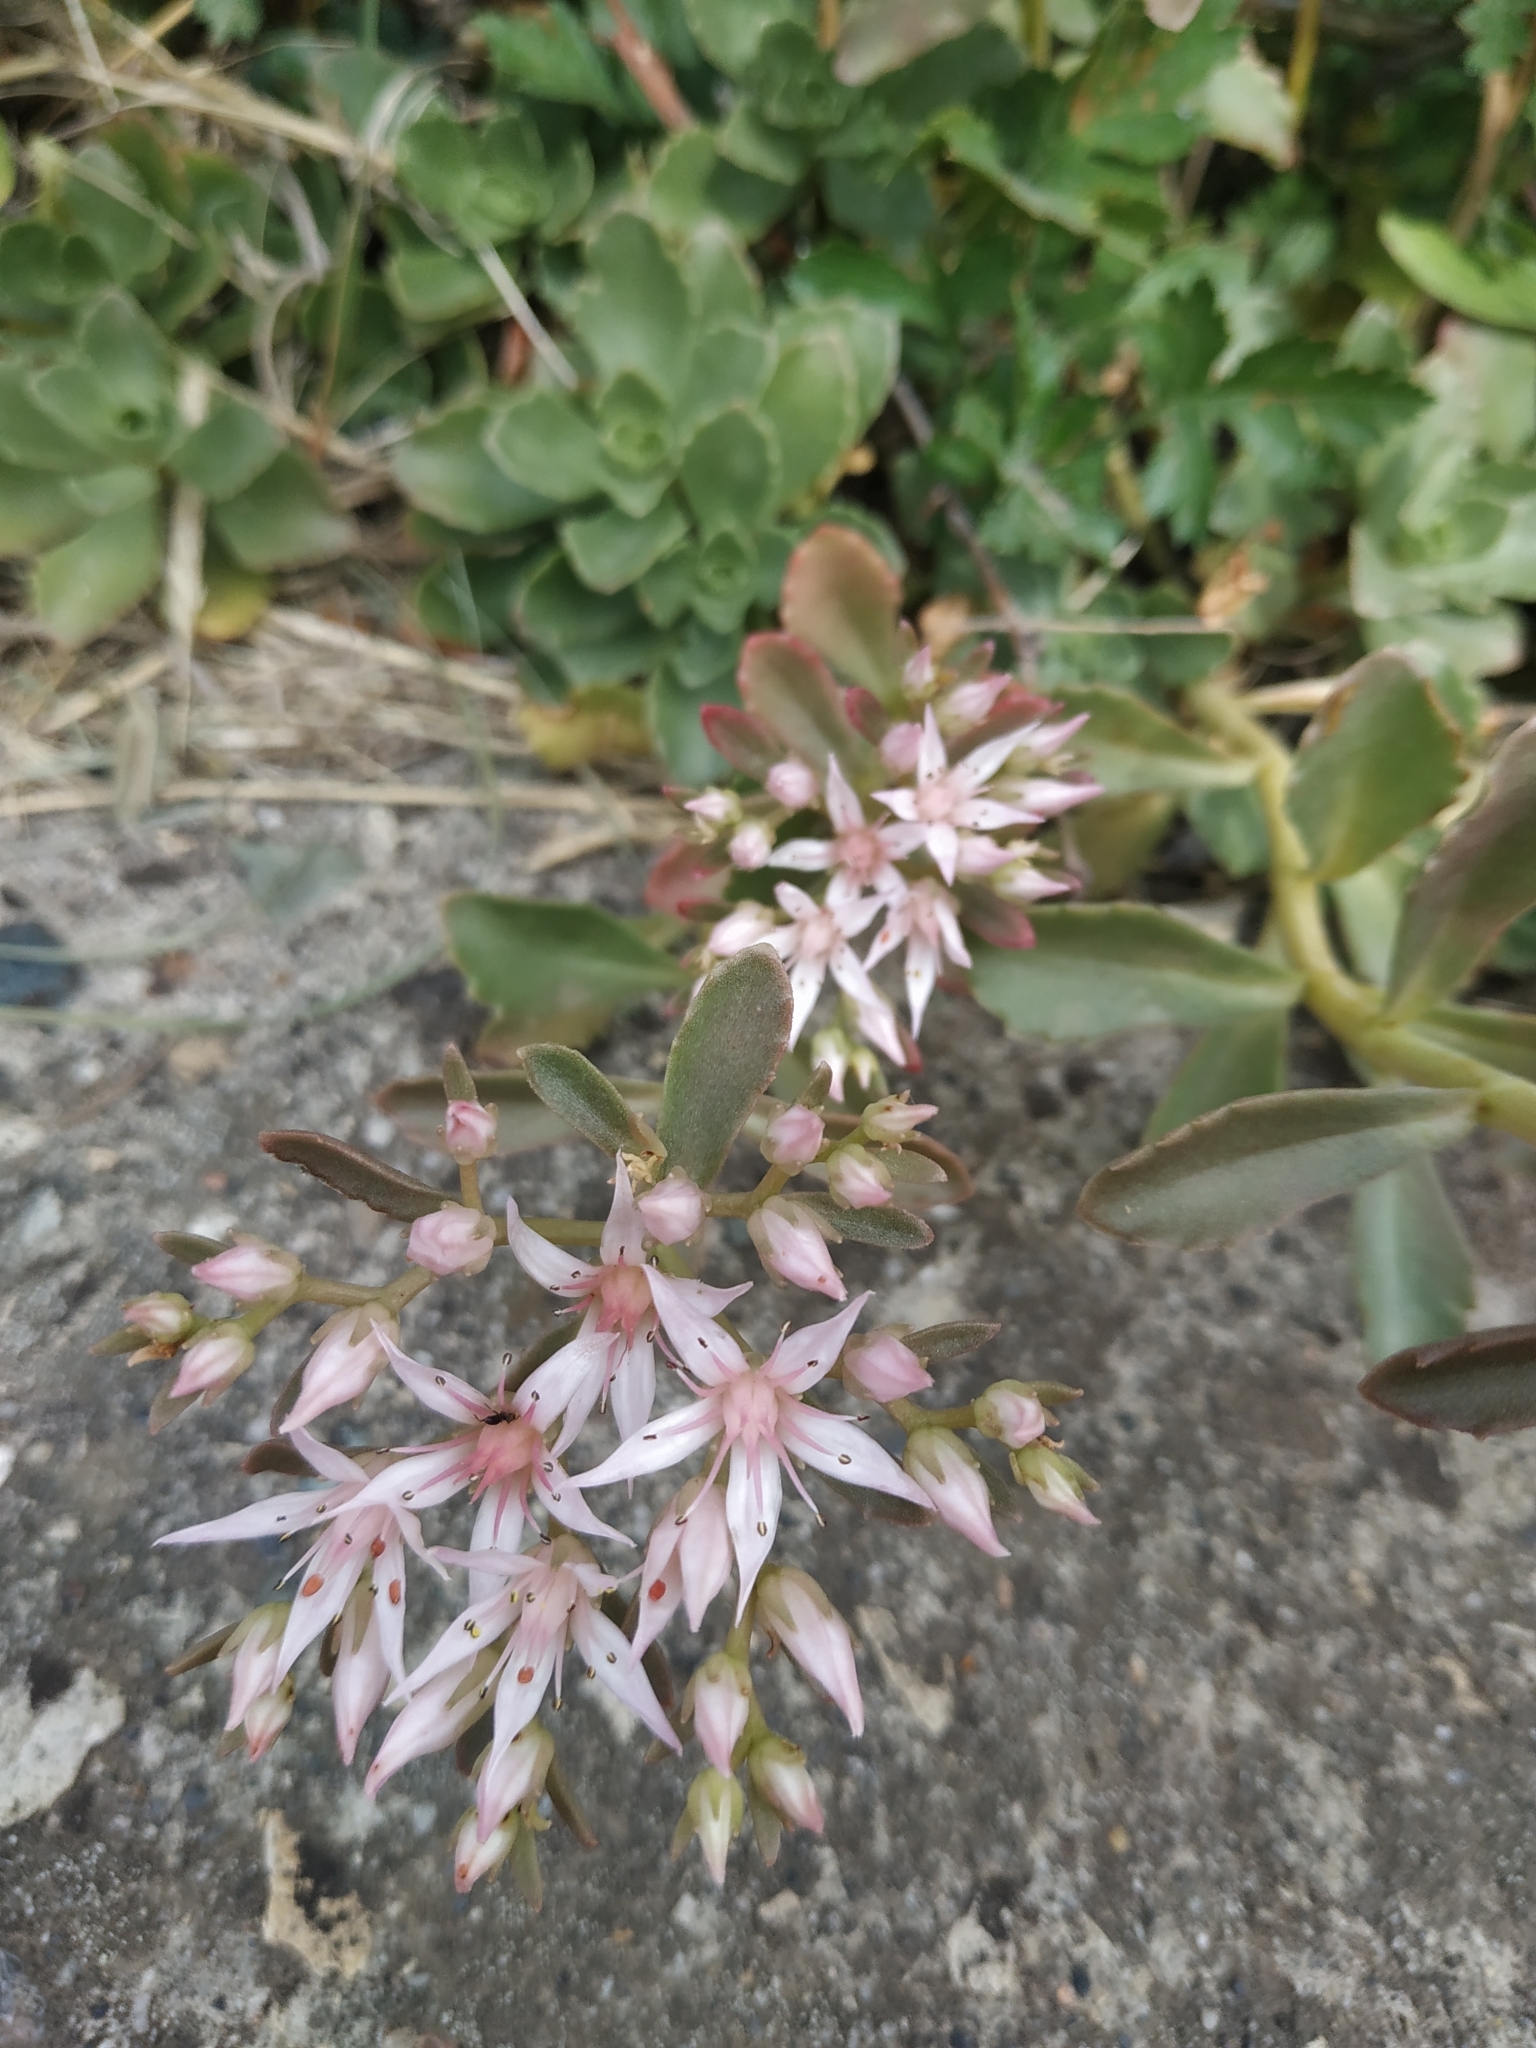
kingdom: Plantae
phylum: Tracheophyta
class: Magnoliopsida
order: Saxifragales
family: Crassulaceae
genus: Phedimus
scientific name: Phedimus spurius
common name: Caucasian stonecrop
